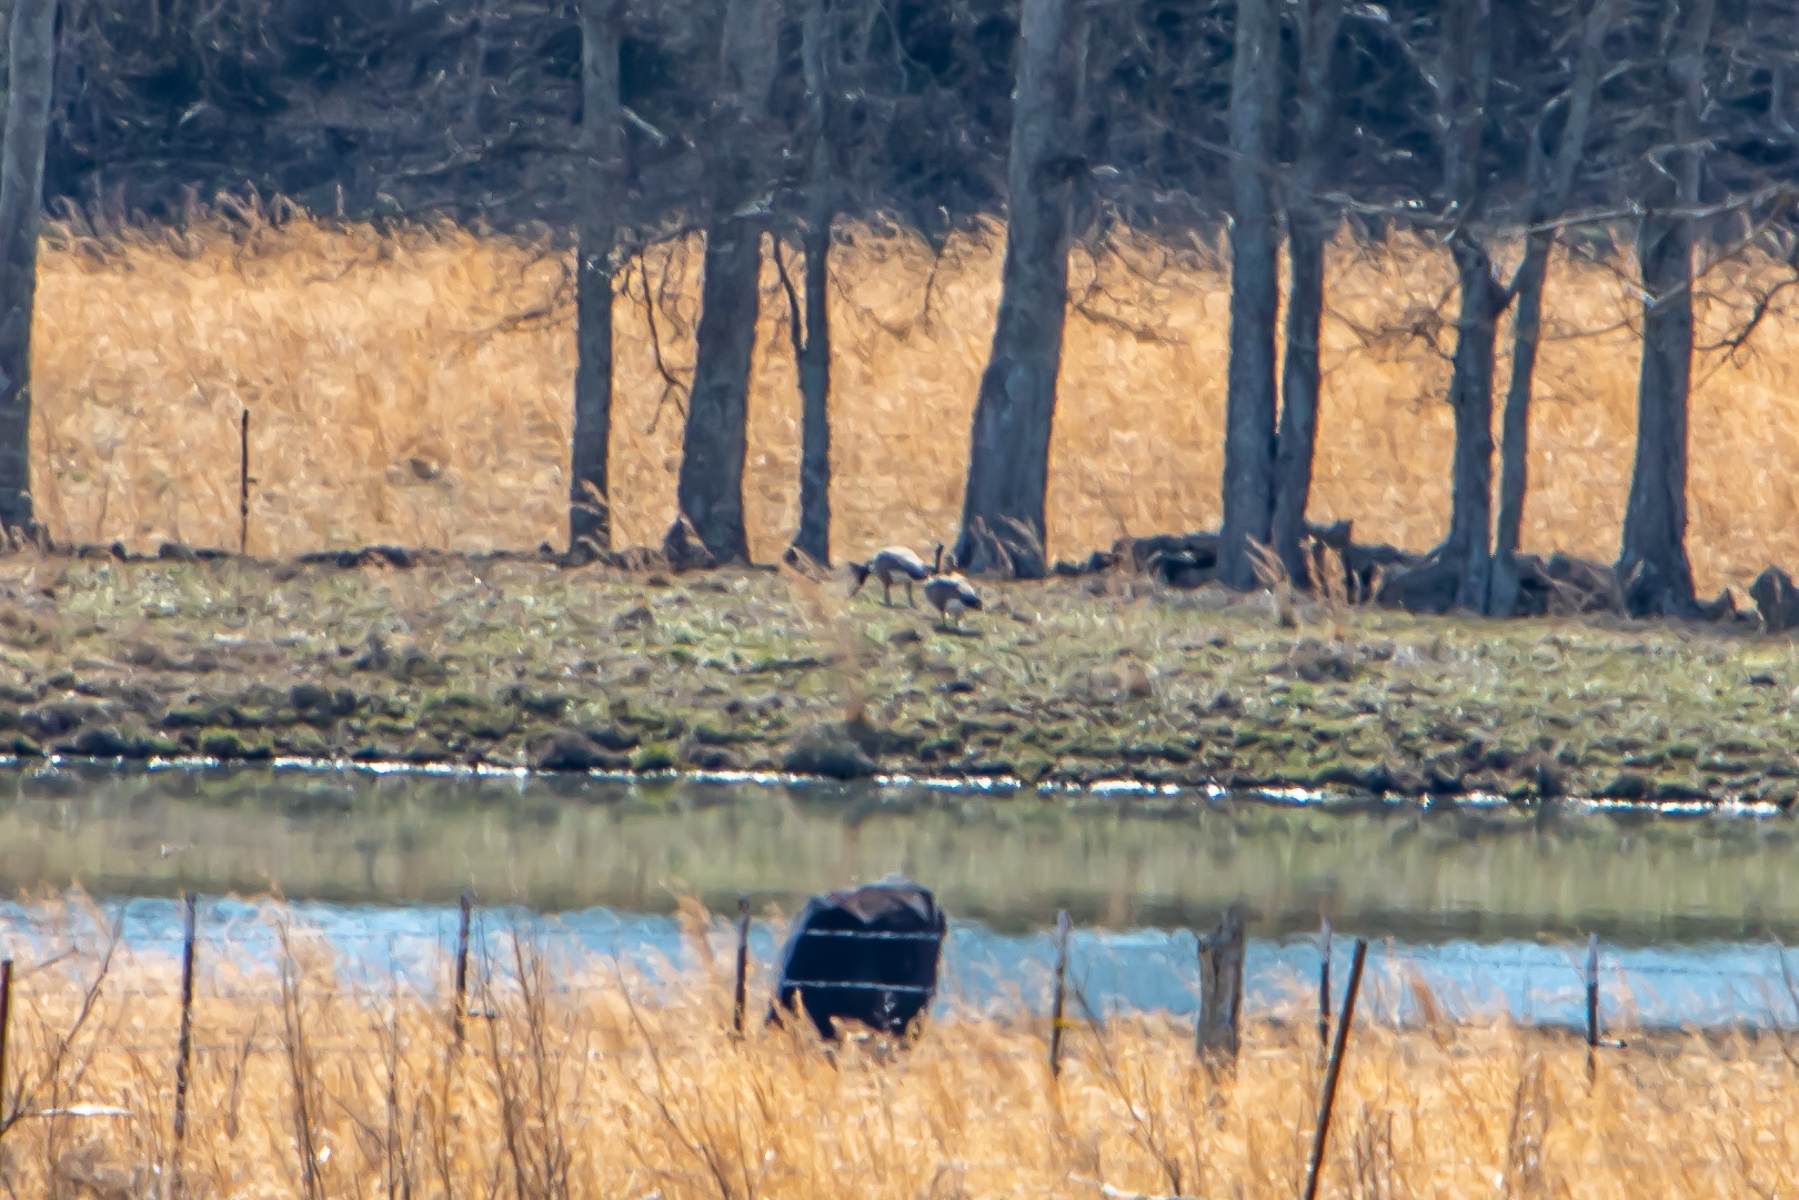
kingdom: Animalia
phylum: Chordata
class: Aves
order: Anseriformes
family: Anatidae
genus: Branta
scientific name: Branta canadensis
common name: Canada goose
